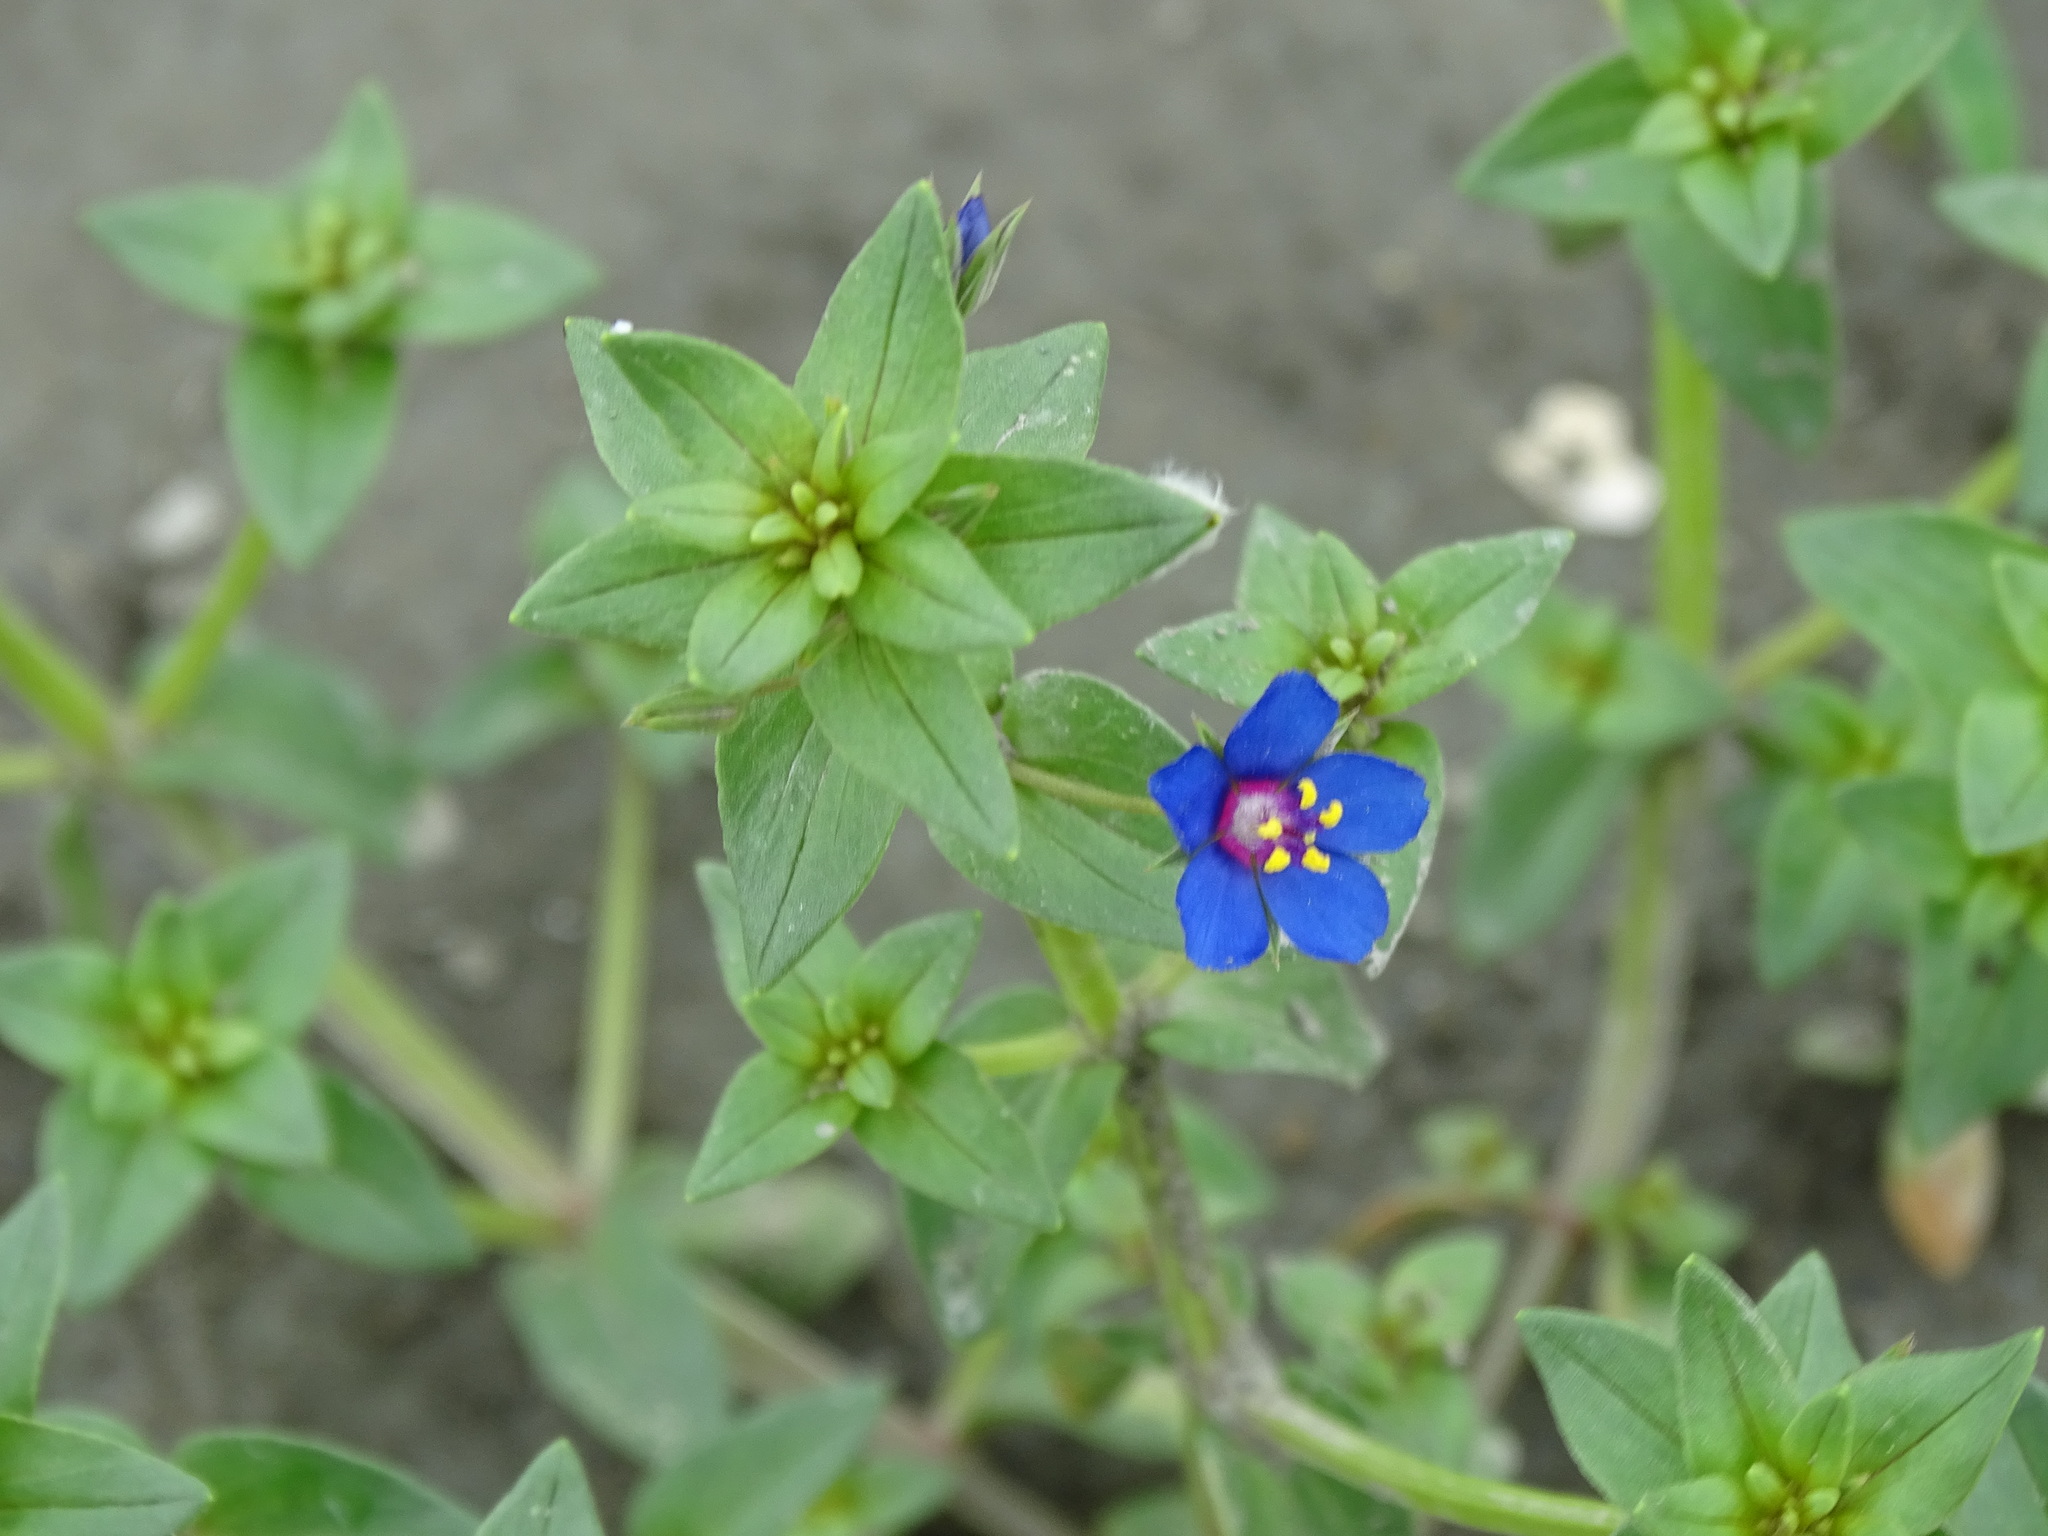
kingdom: Plantae
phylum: Tracheophyta
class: Magnoliopsida
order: Ericales
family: Primulaceae
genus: Lysimachia
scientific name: Lysimachia loeflingii
